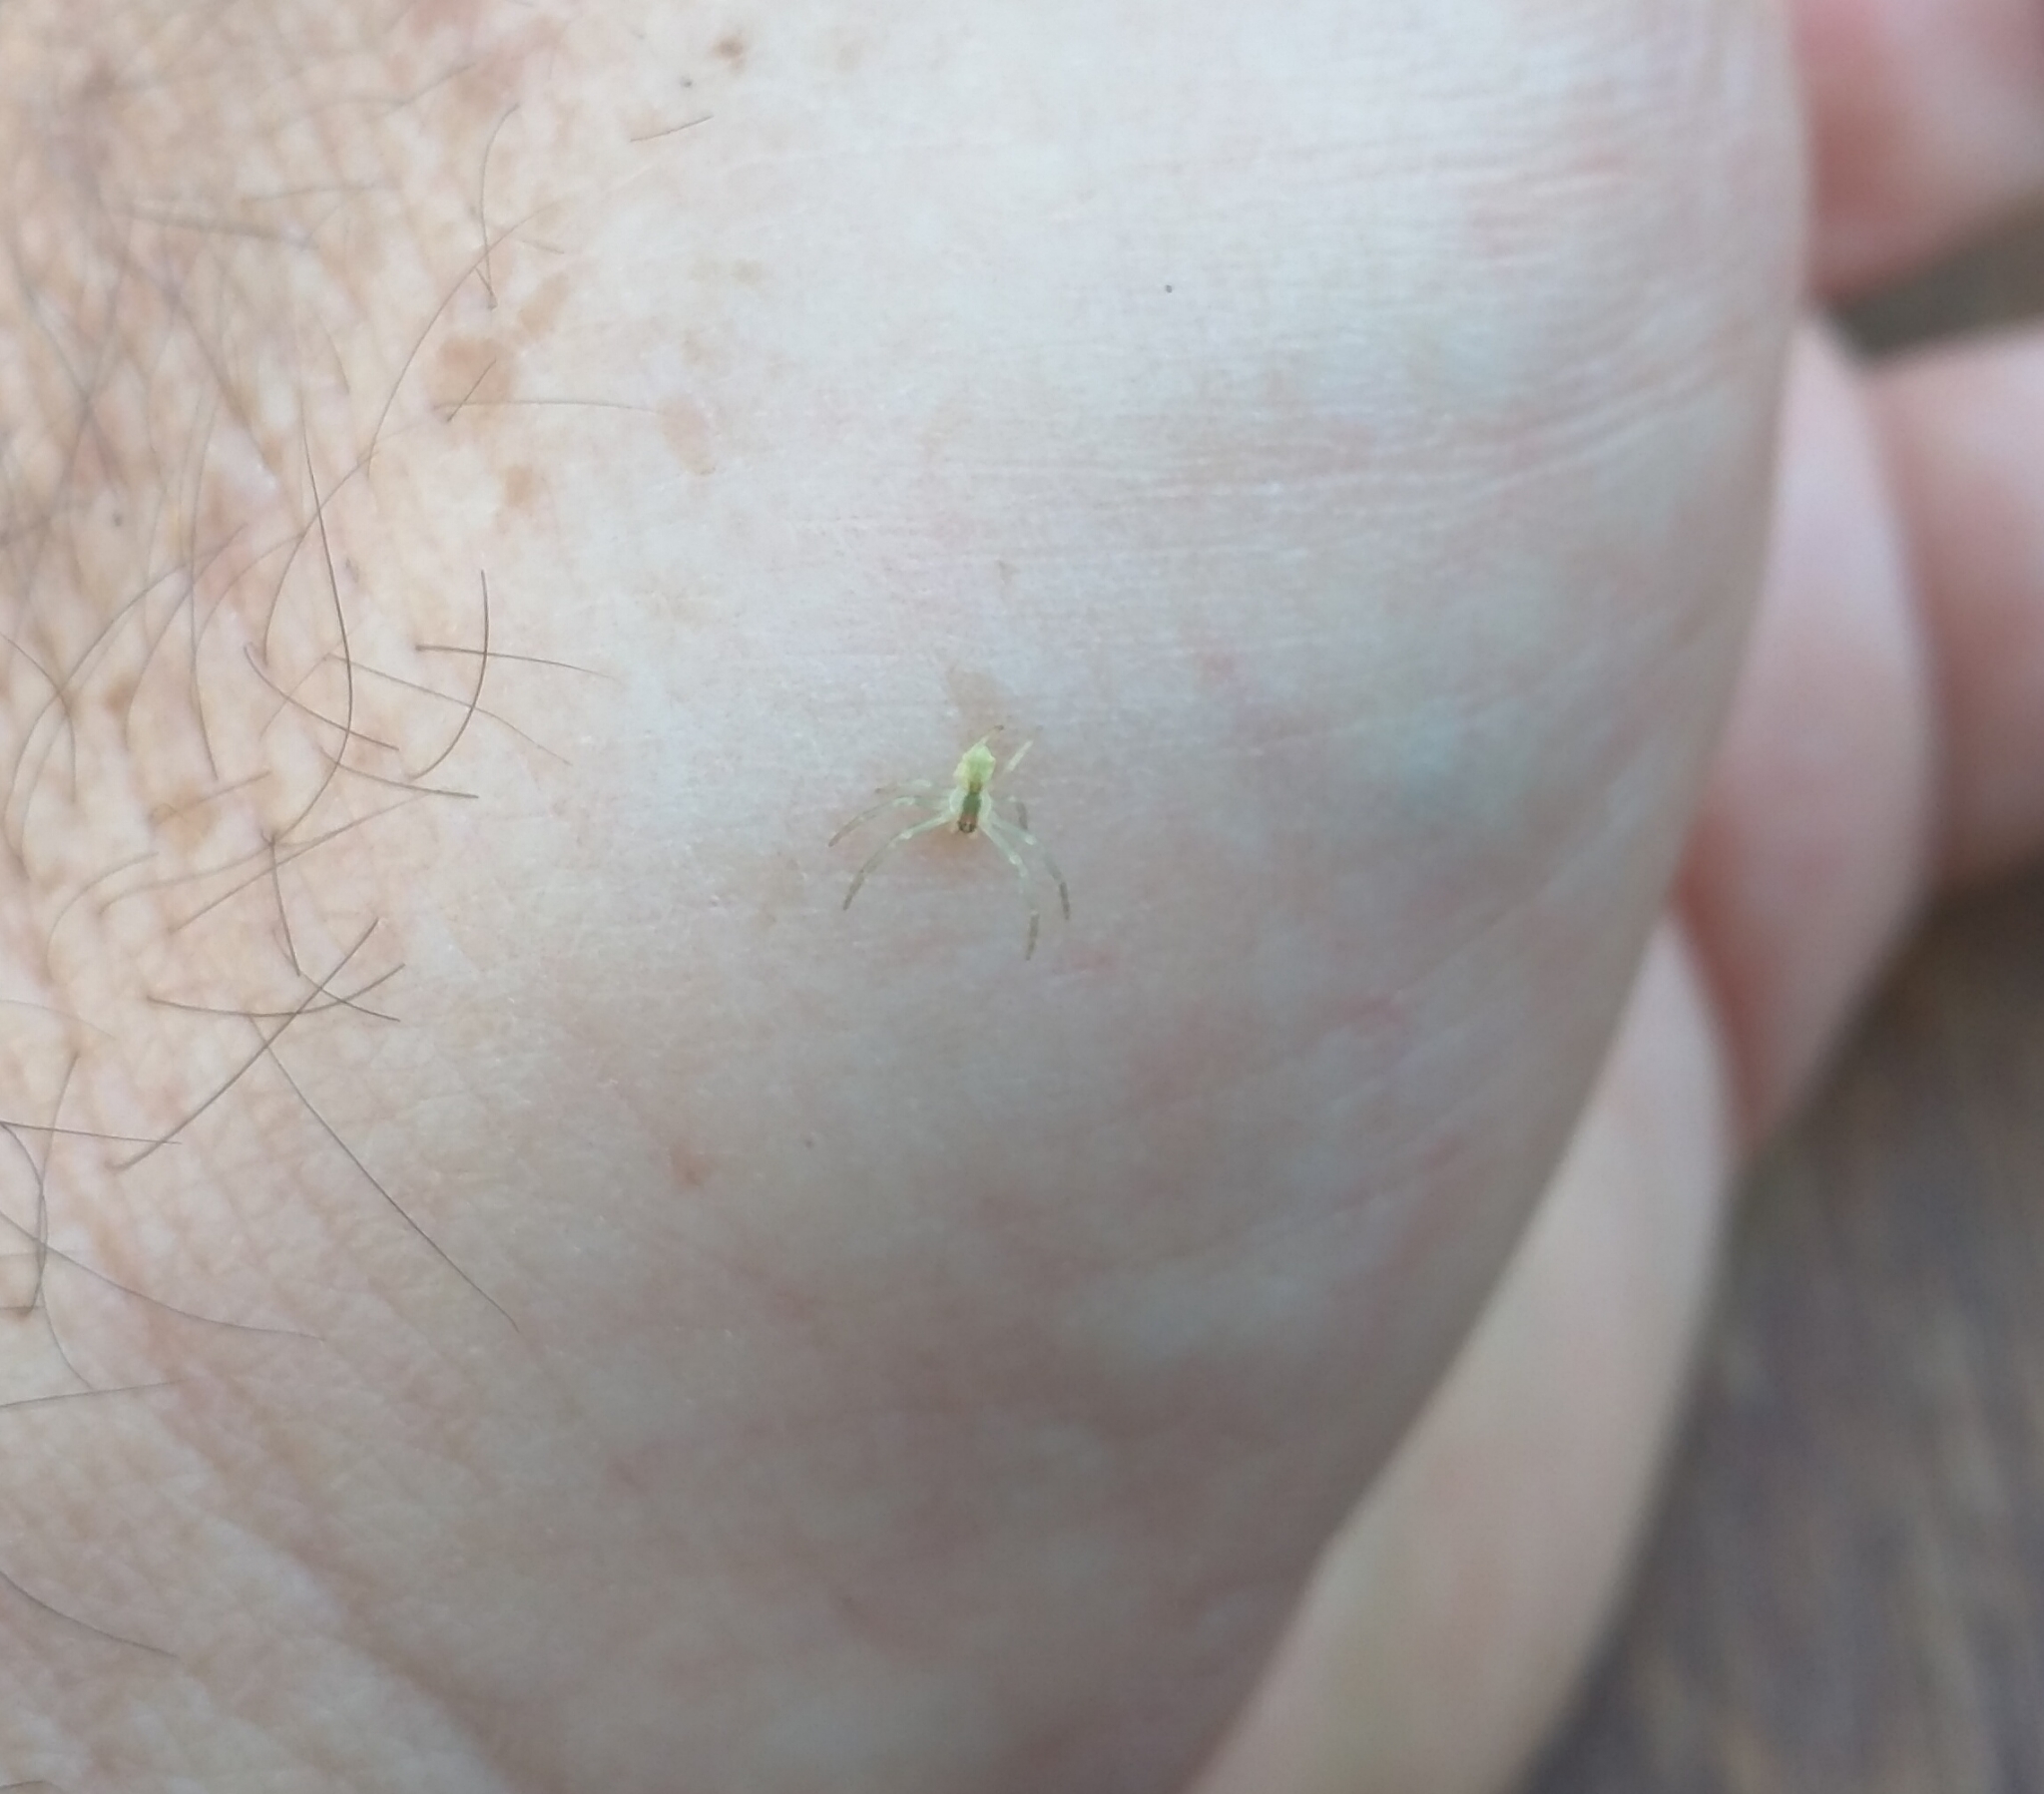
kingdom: Animalia
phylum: Arthropoda
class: Arachnida
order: Araneae
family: Thomisidae
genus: Sidymella
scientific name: Sidymella rubrosignata
